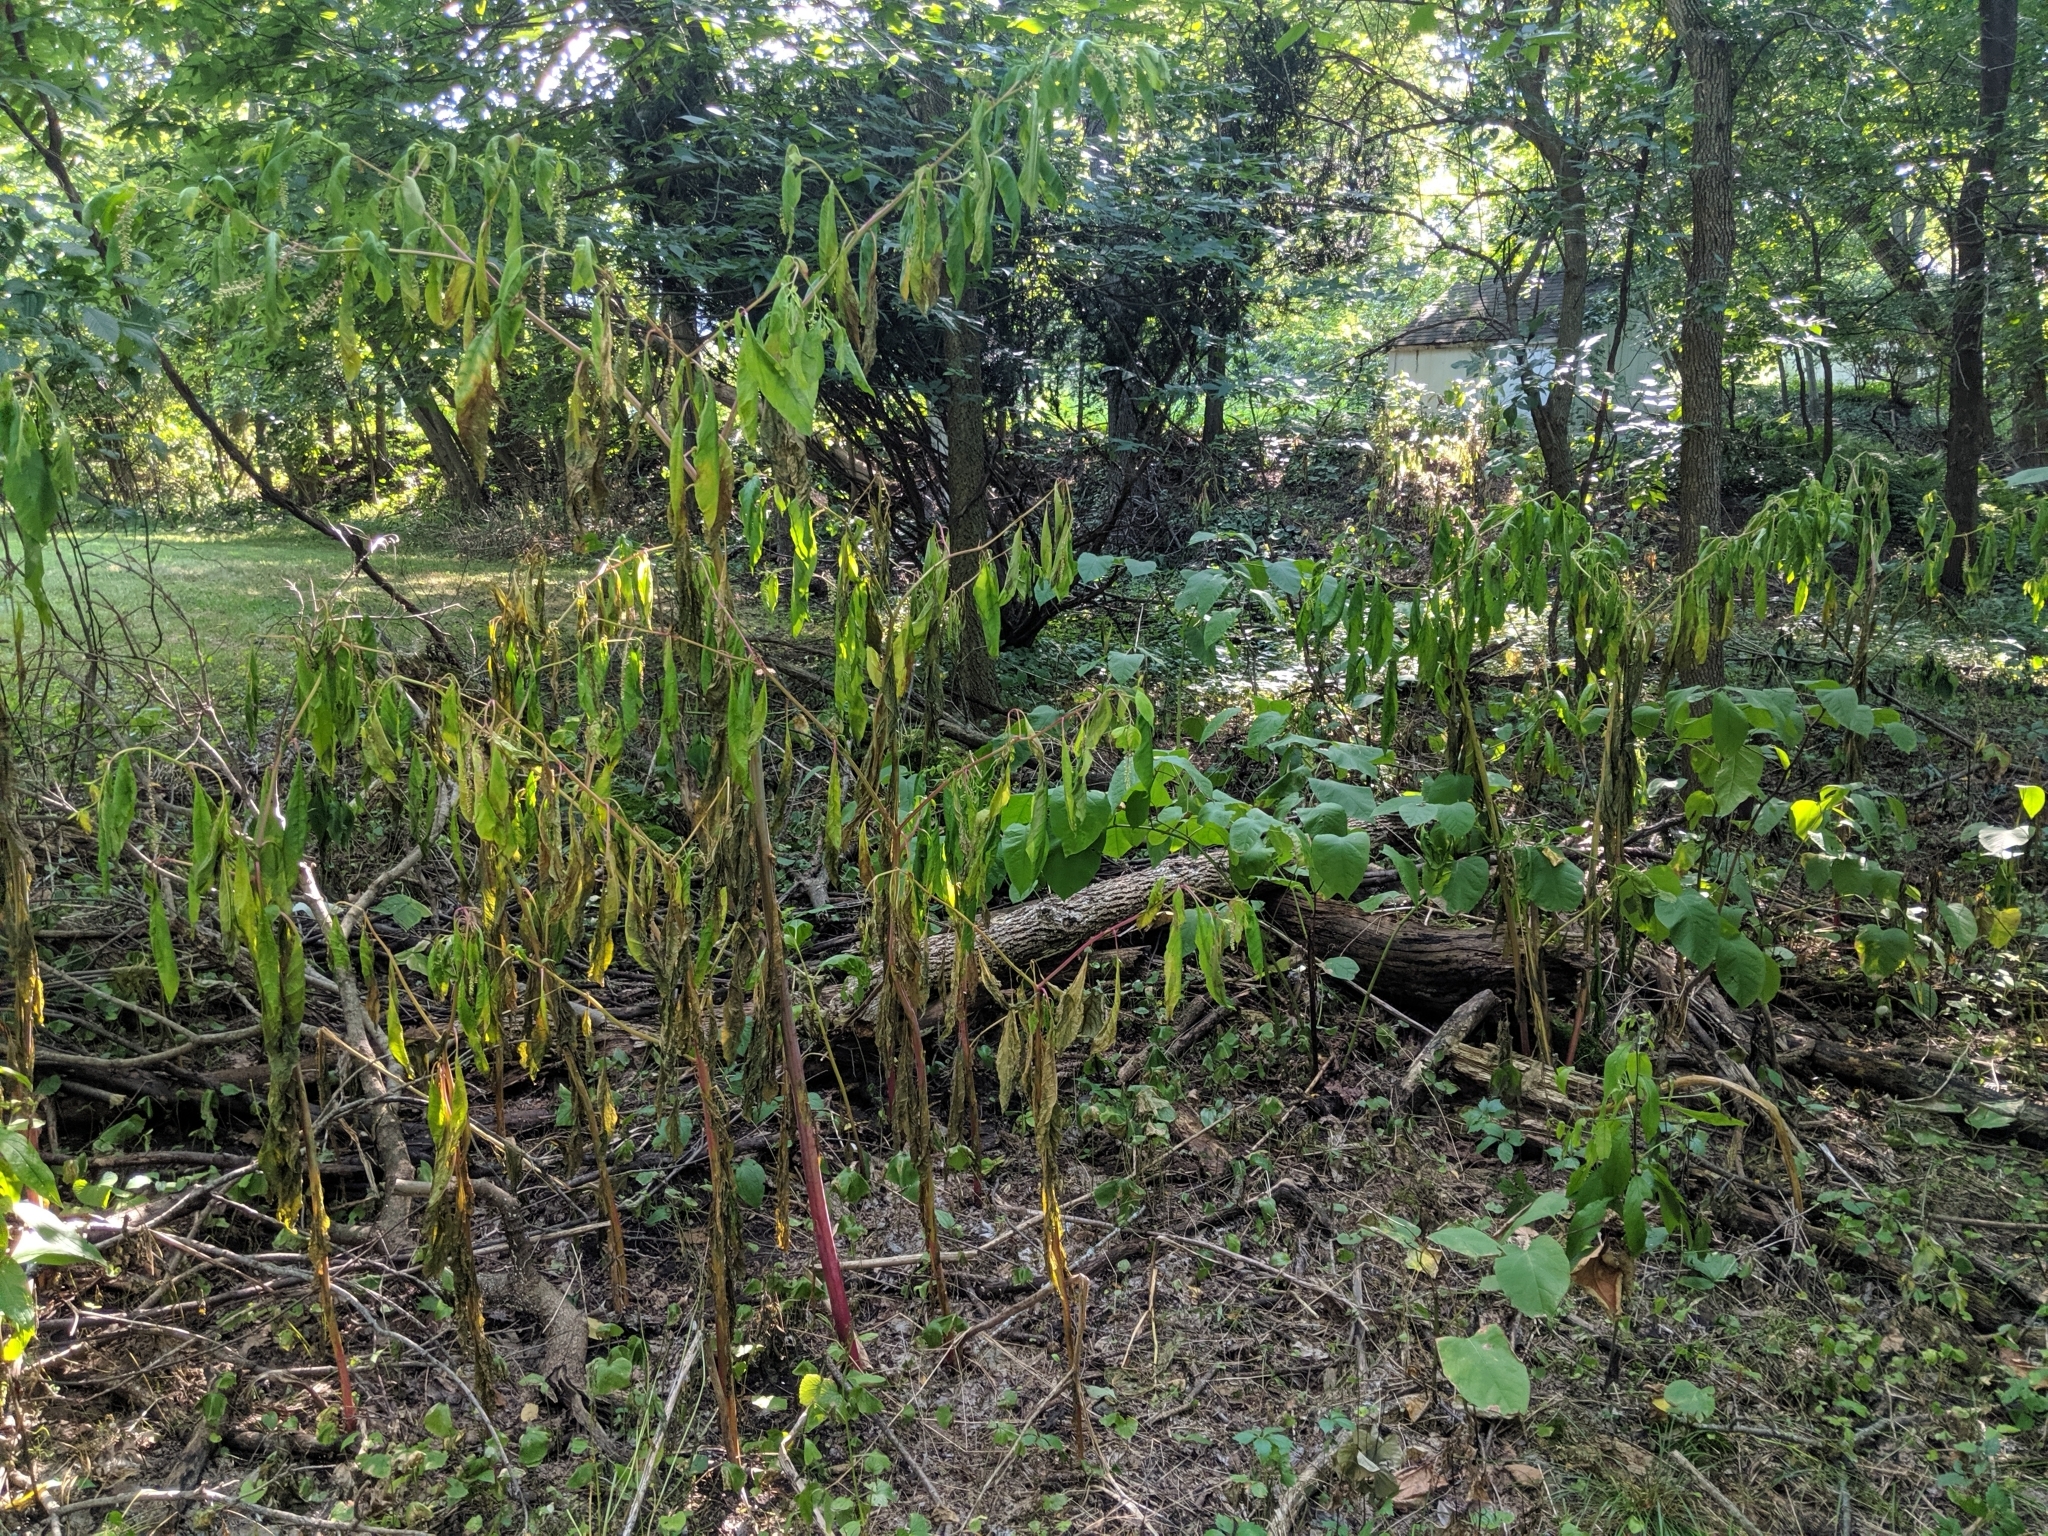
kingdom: Plantae
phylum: Tracheophyta
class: Magnoliopsida
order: Caryophyllales
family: Phytolaccaceae
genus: Phytolacca
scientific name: Phytolacca americana
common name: American pokeweed
